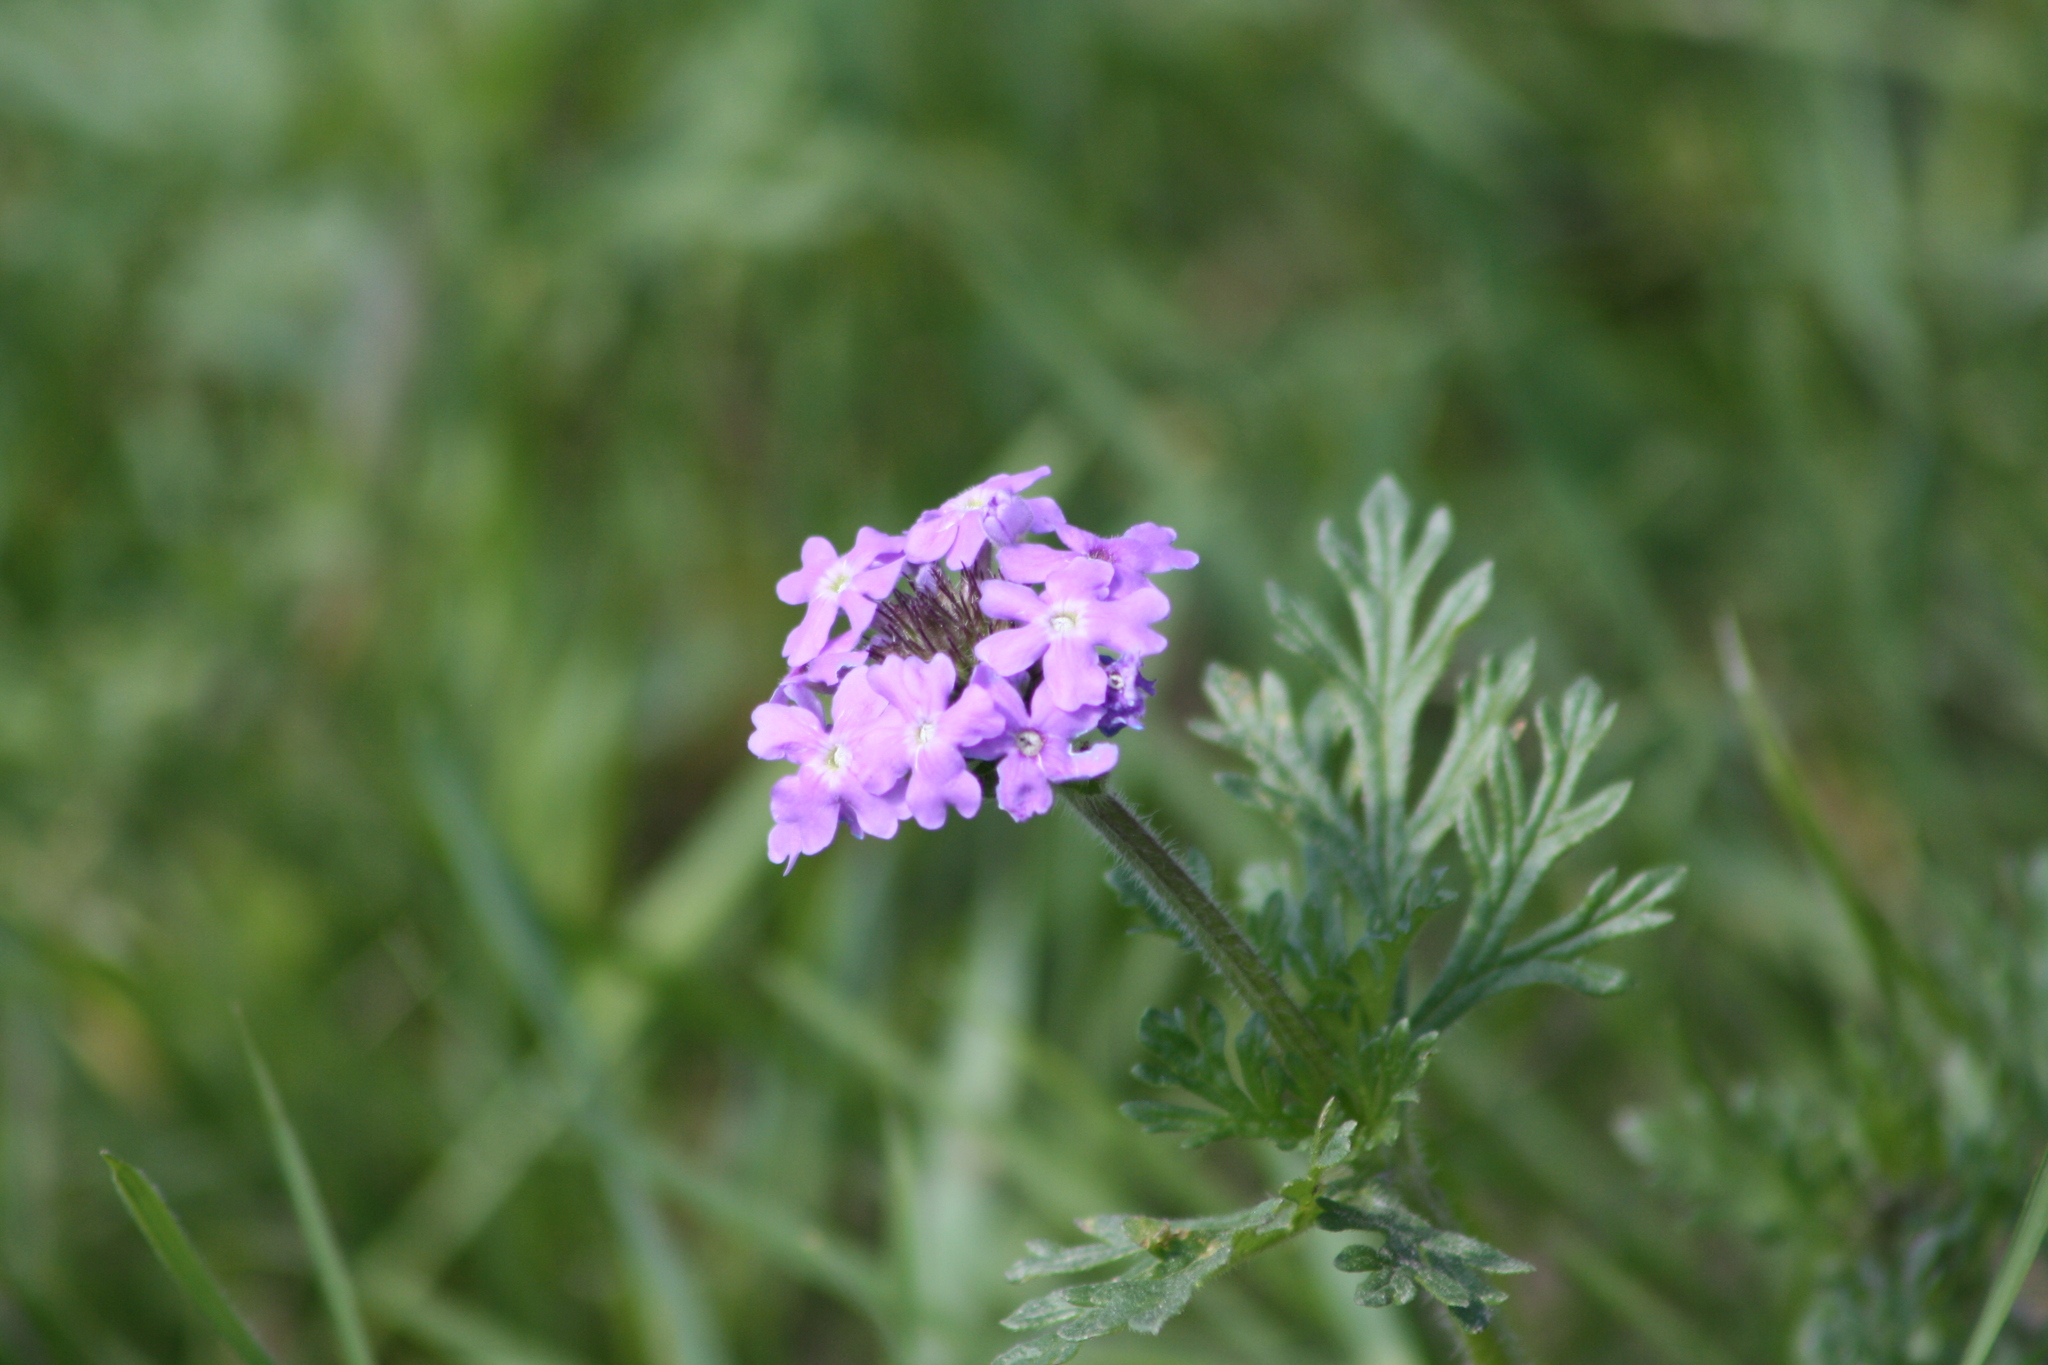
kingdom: Plantae
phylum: Tracheophyta
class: Magnoliopsida
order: Lamiales
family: Verbenaceae
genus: Verbena
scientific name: Verbena bipinnatifida
